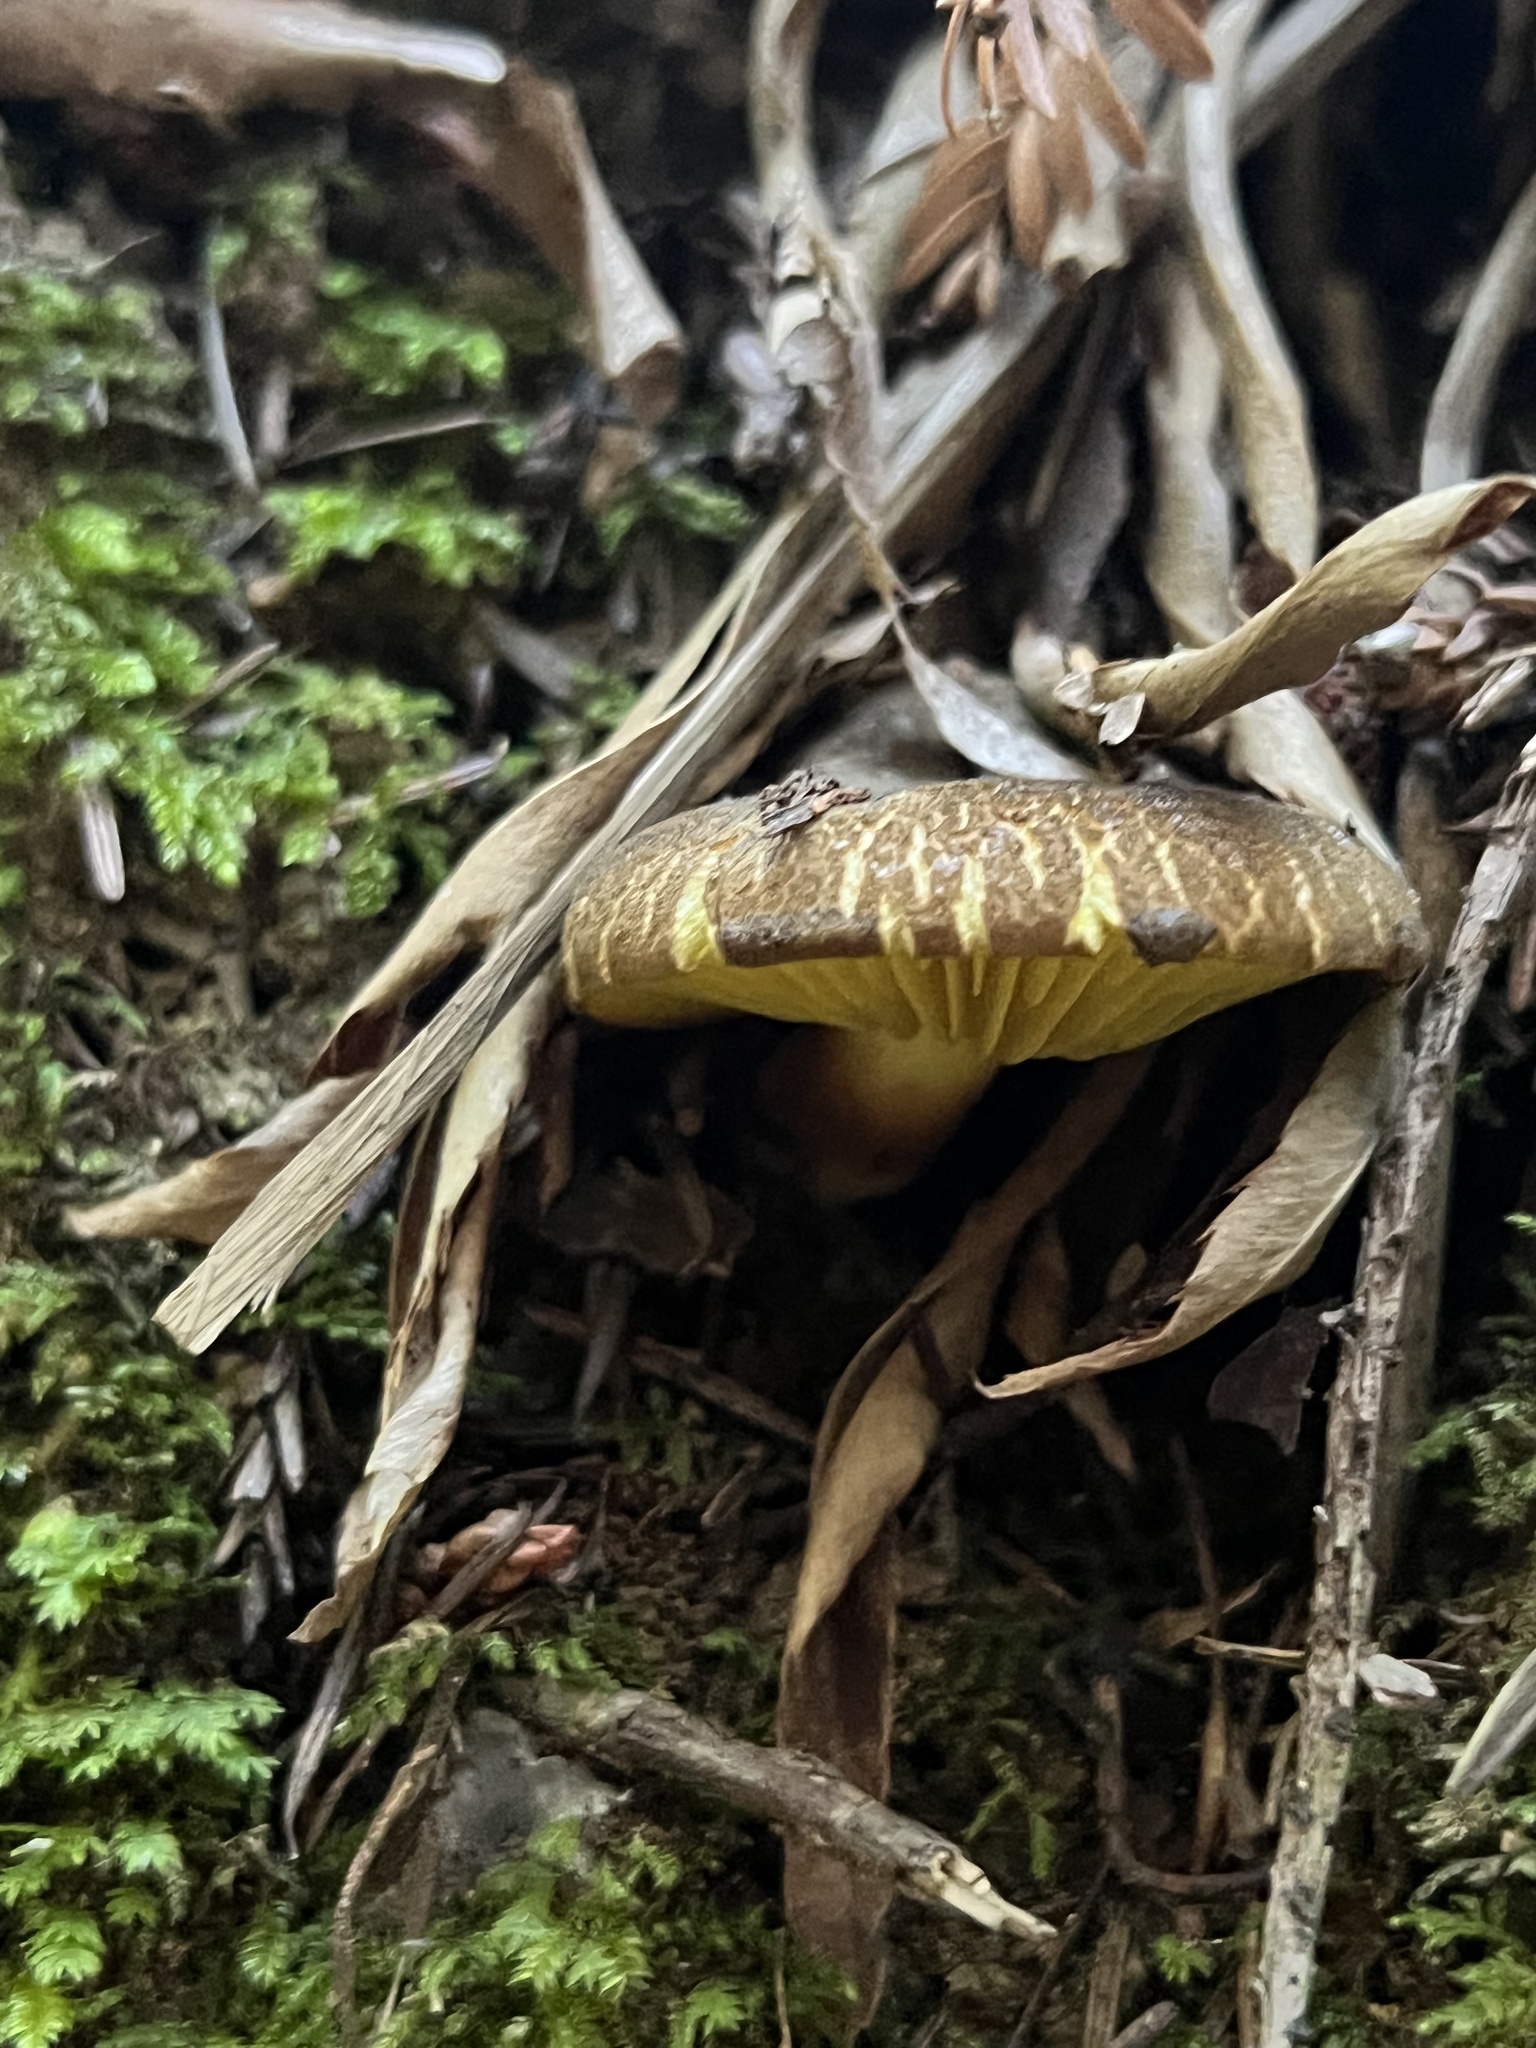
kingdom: Fungi
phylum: Basidiomycota
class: Agaricomycetes
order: Boletales
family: Boletaceae
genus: Phylloporus
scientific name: Phylloporus arenicola
